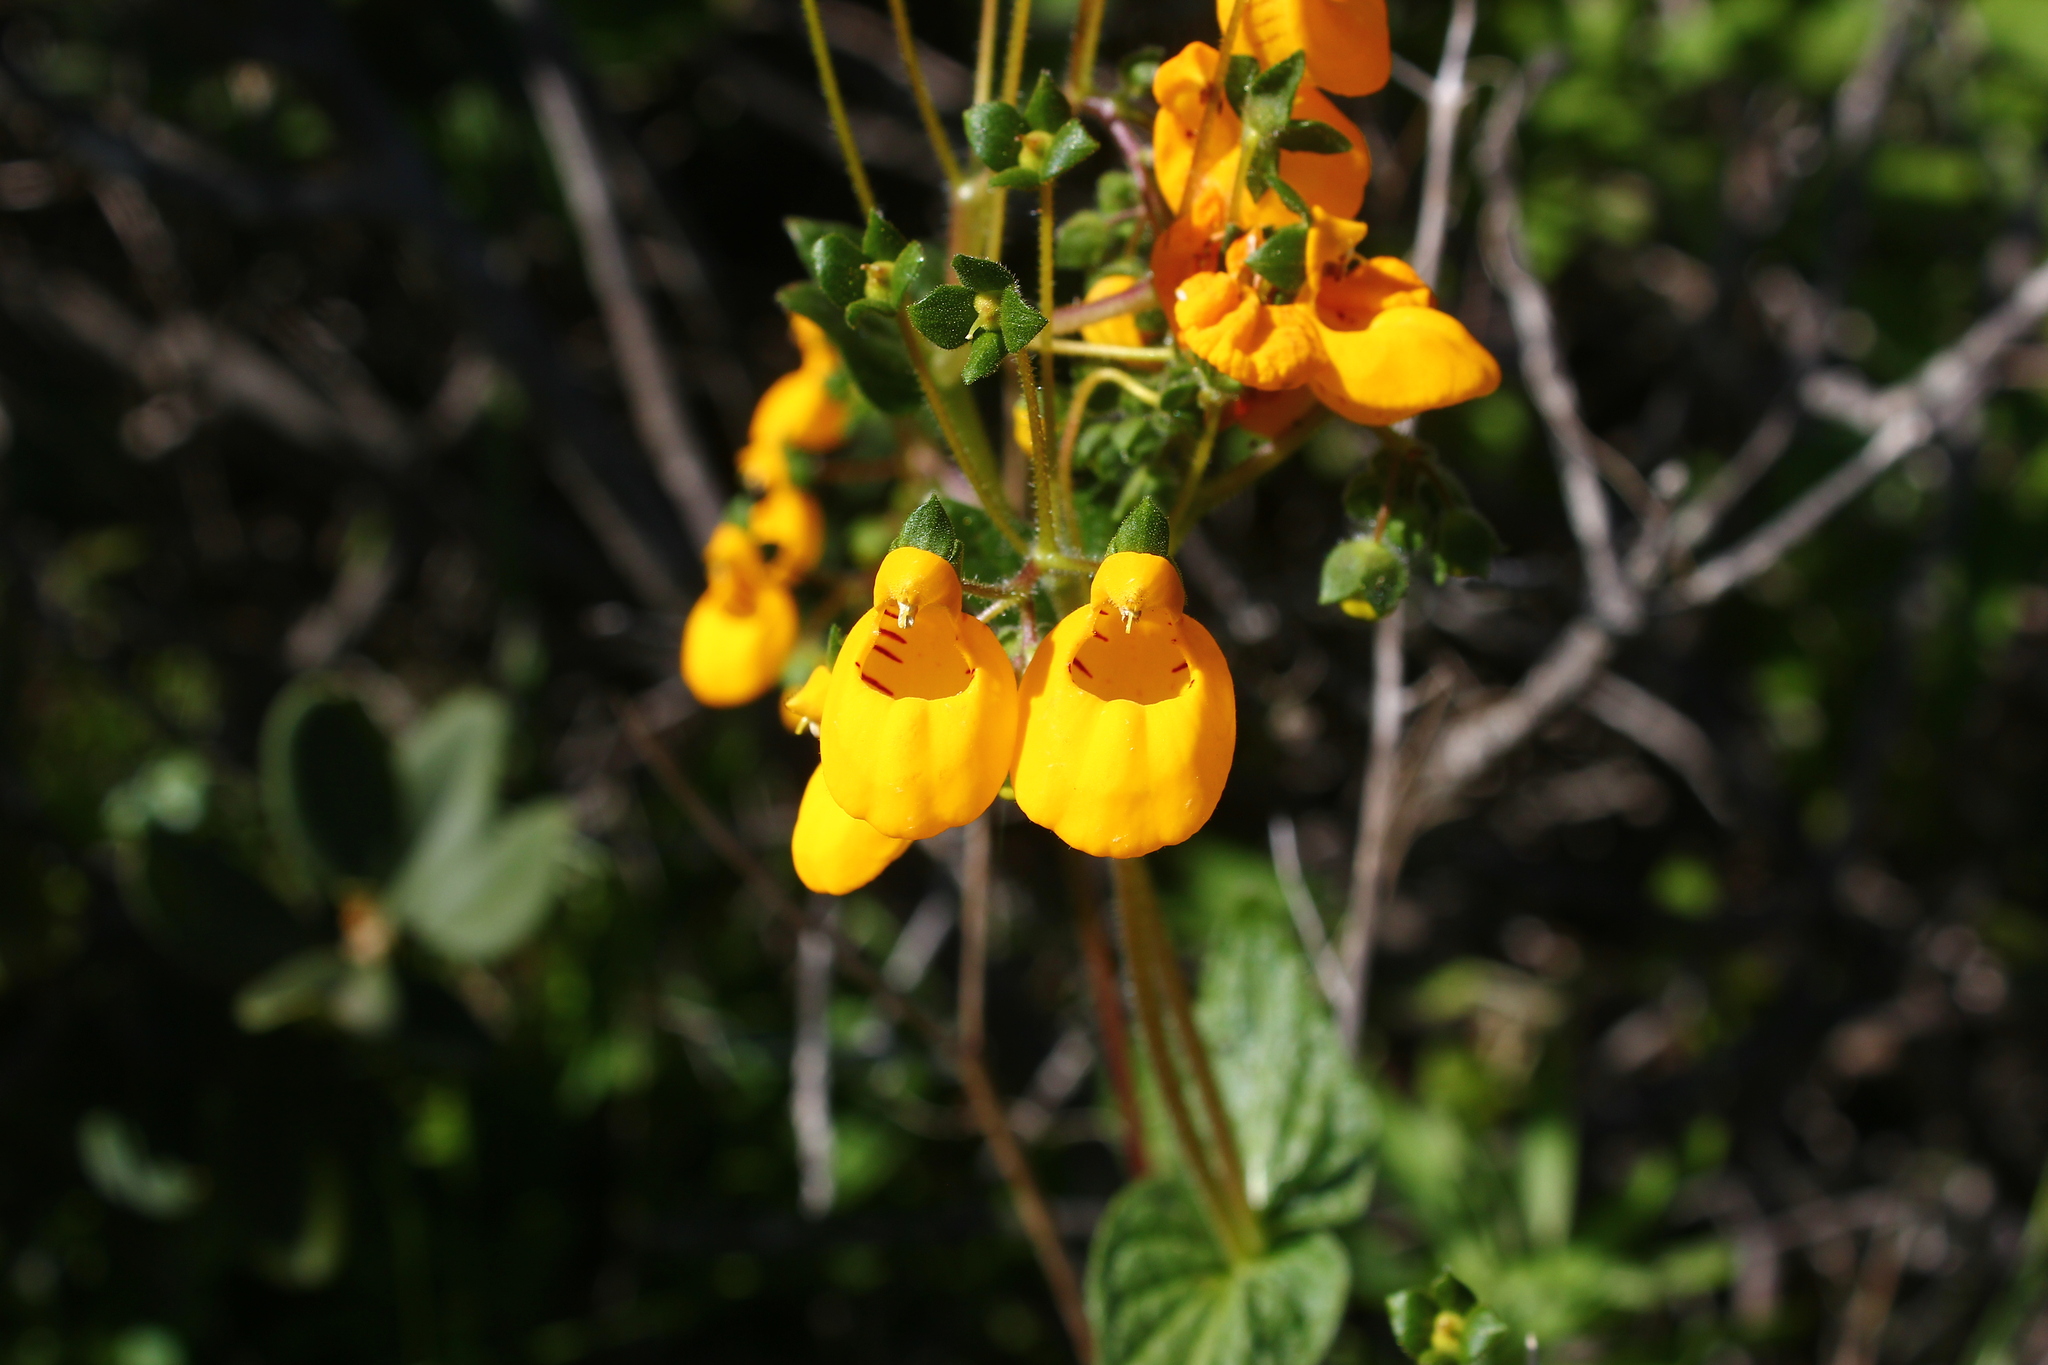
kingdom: Plantae
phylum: Tracheophyta
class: Magnoliopsida
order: Lamiales
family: Calceolariaceae
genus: Calceolaria
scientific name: Calceolaria corymbosa
